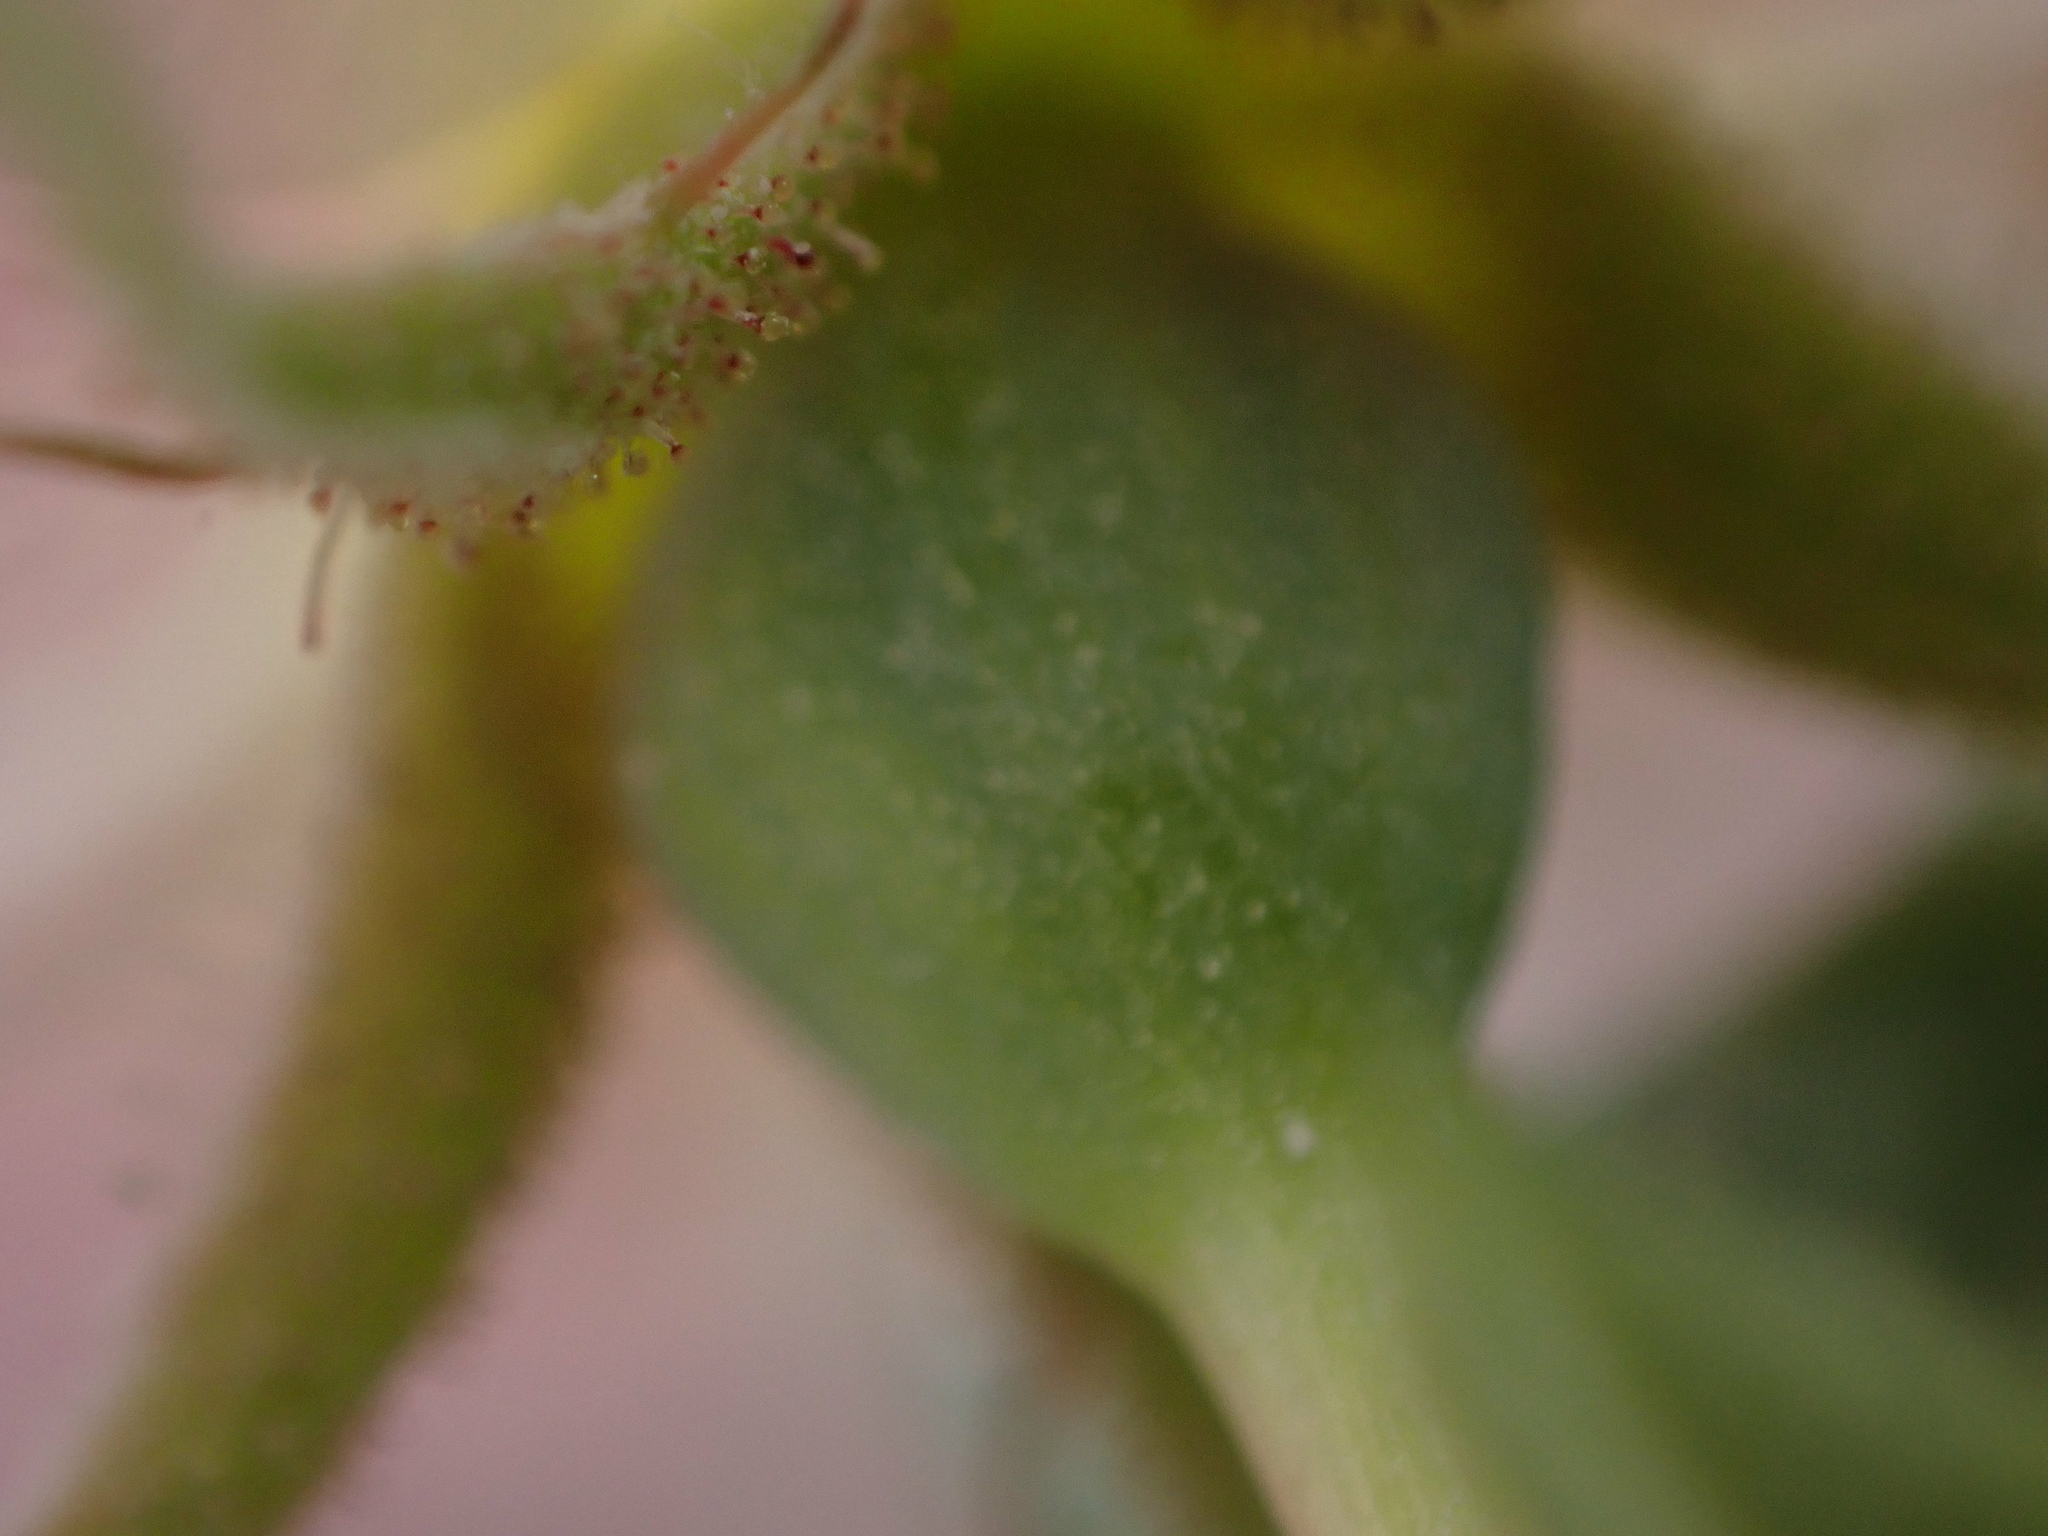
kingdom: Plantae
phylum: Tracheophyta
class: Magnoliopsida
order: Rosales
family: Rosaceae
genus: Rosa
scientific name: Rosa arkansana
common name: Prairie rose
